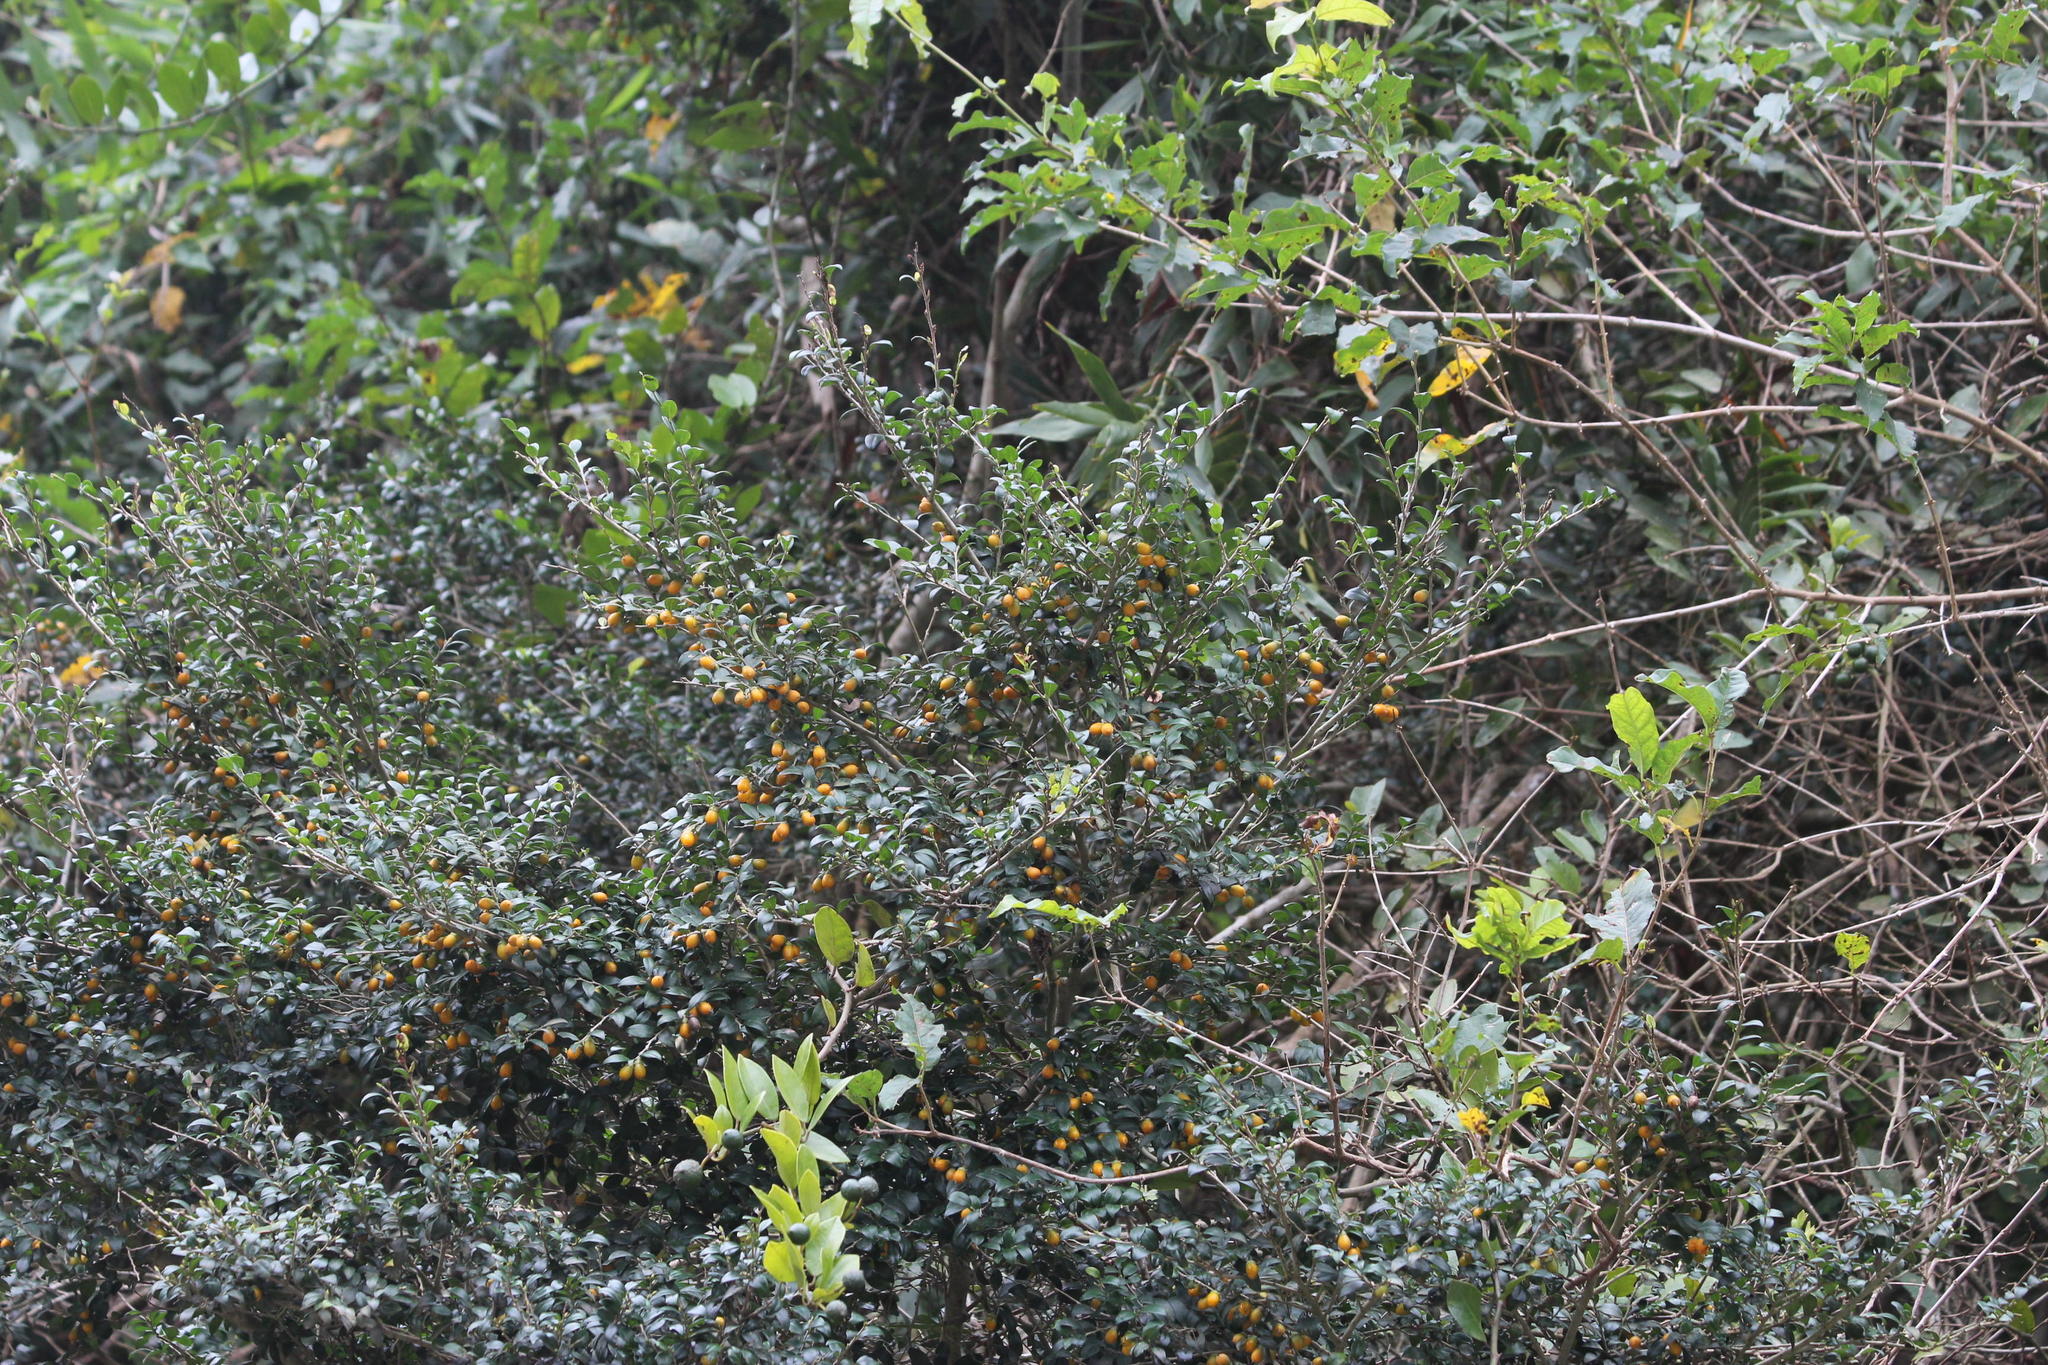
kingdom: Plantae
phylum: Tracheophyta
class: Magnoliopsida
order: Ericales
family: Ebenaceae
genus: Diospyros
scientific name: Diospyros natalensis
